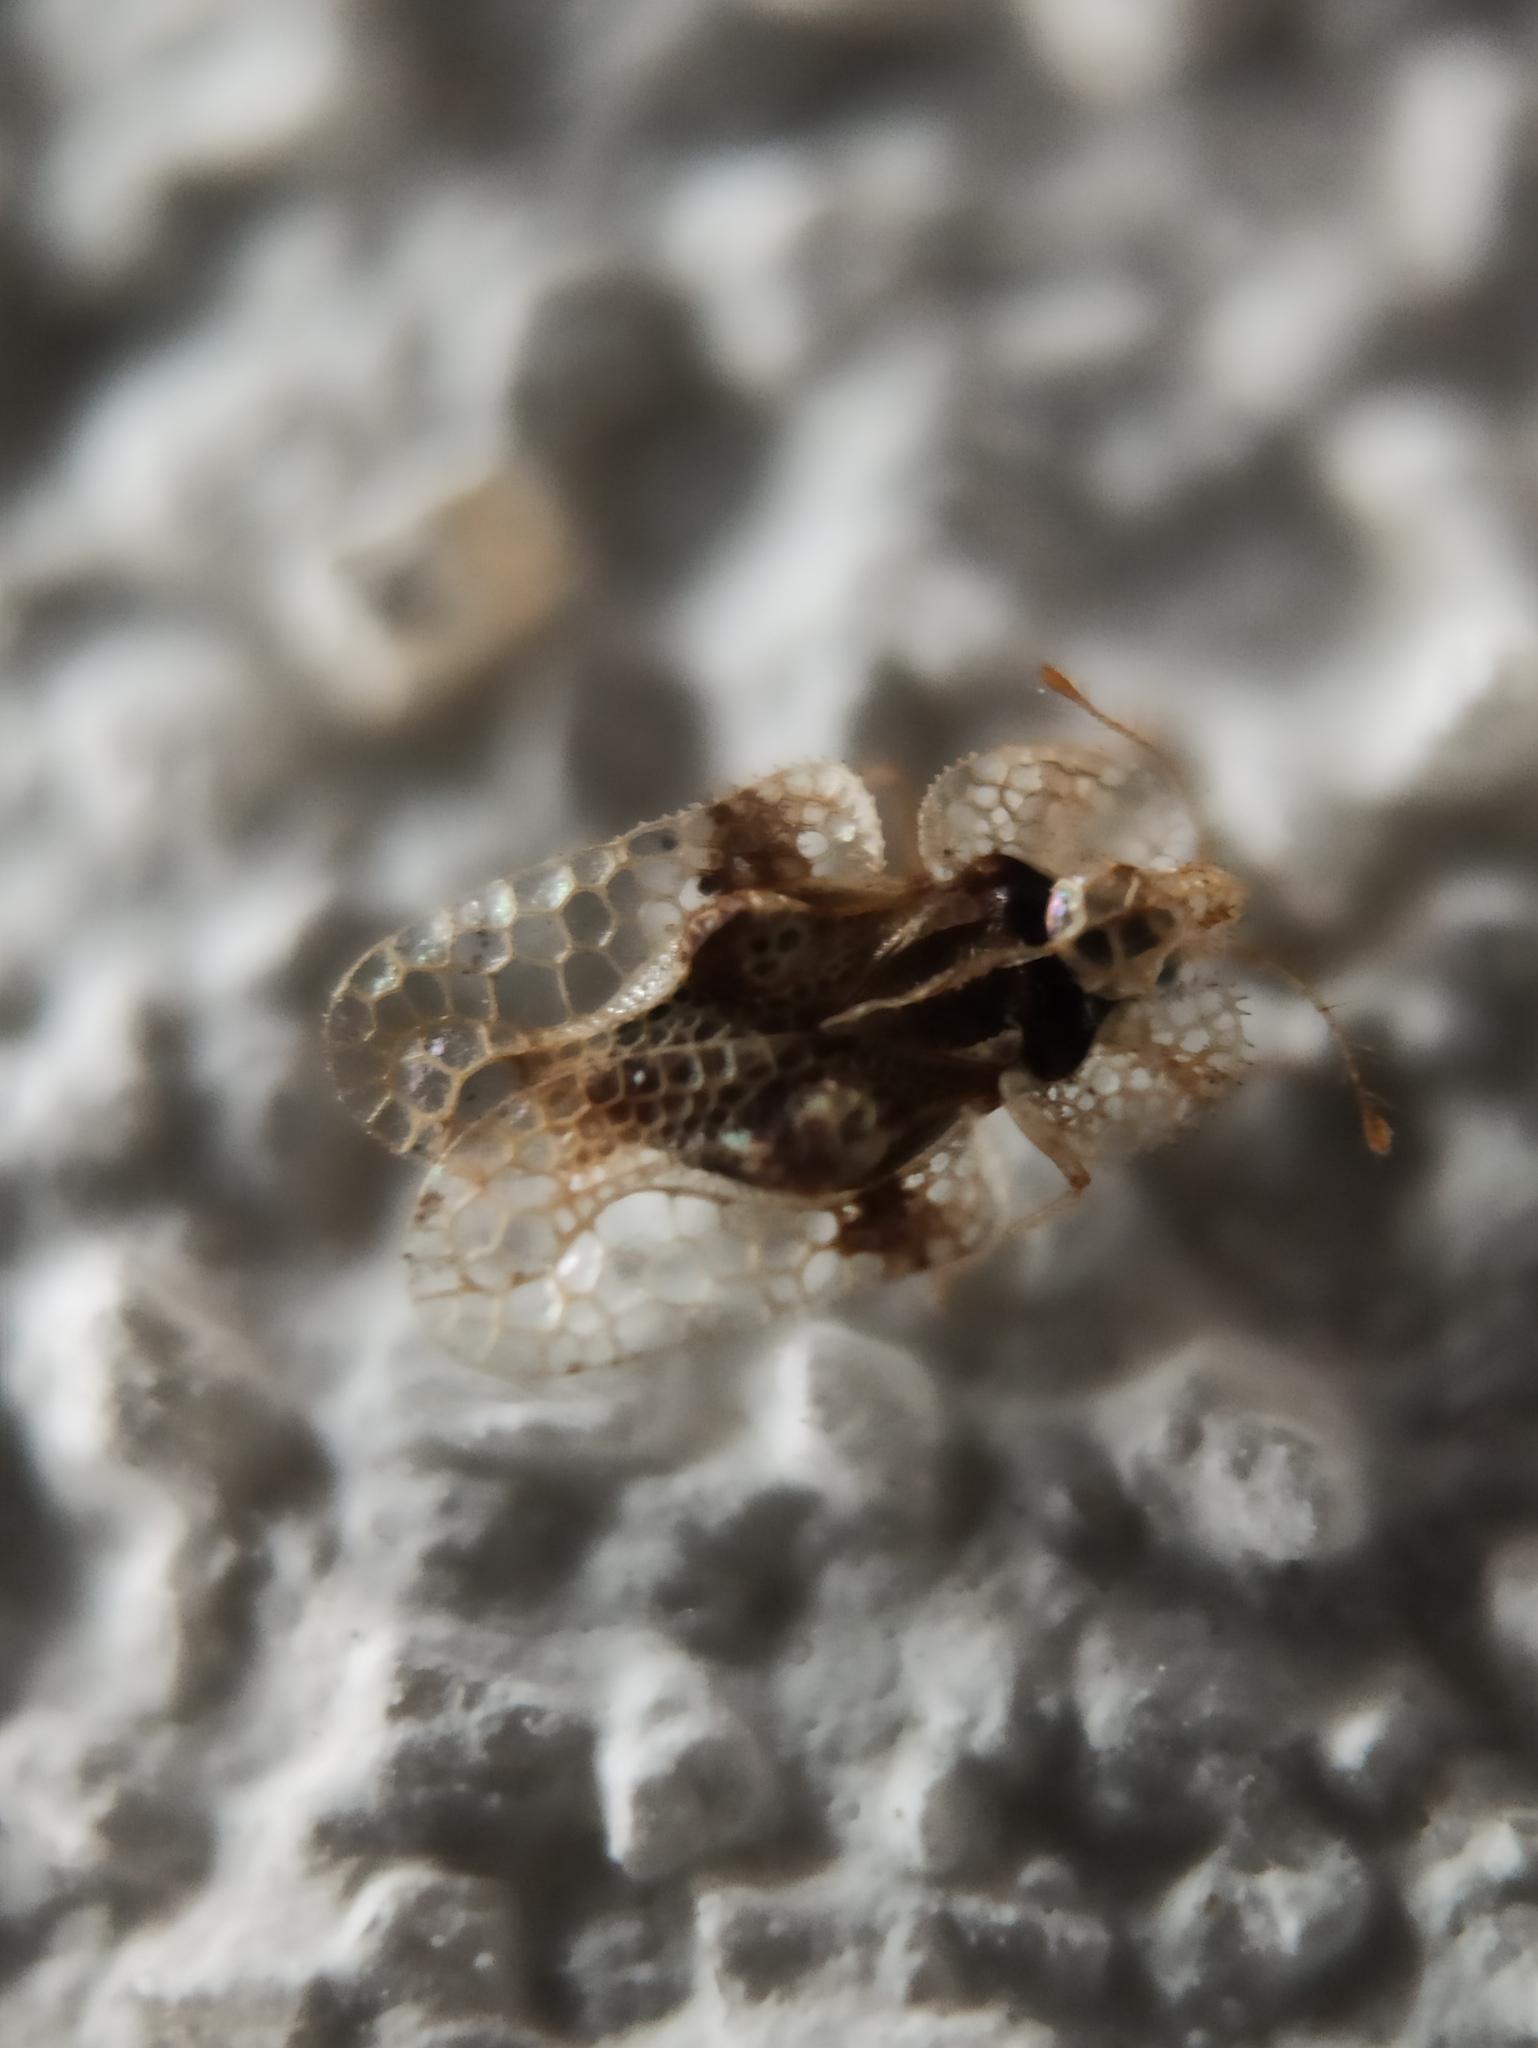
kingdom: Animalia
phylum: Arthropoda
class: Insecta
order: Hemiptera
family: Tingidae
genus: Corythucha
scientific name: Corythucha arcuata
